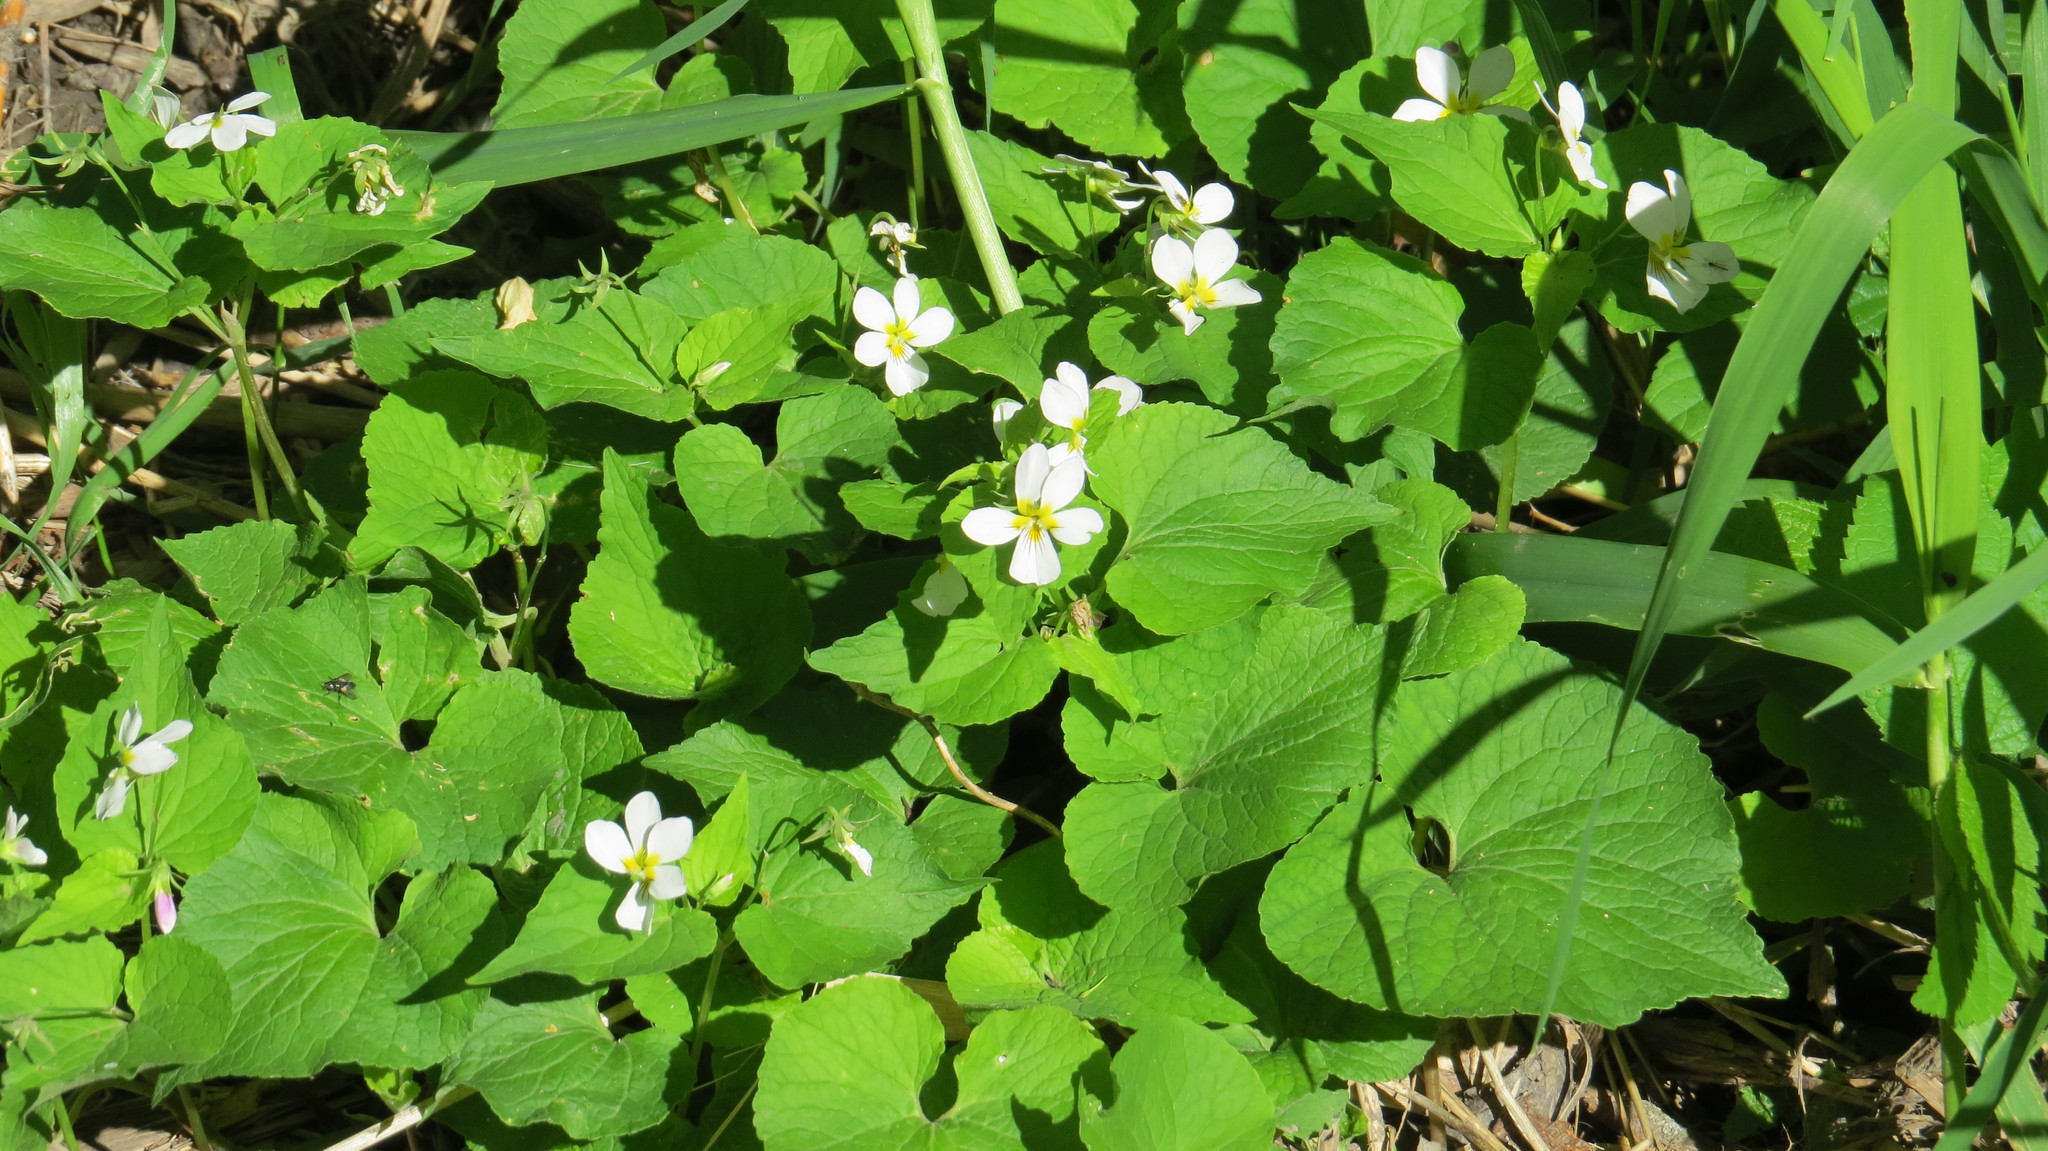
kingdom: Plantae
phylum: Tracheophyta
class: Magnoliopsida
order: Malpighiales
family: Violaceae
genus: Viola
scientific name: Viola canadensis
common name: Canada violet
